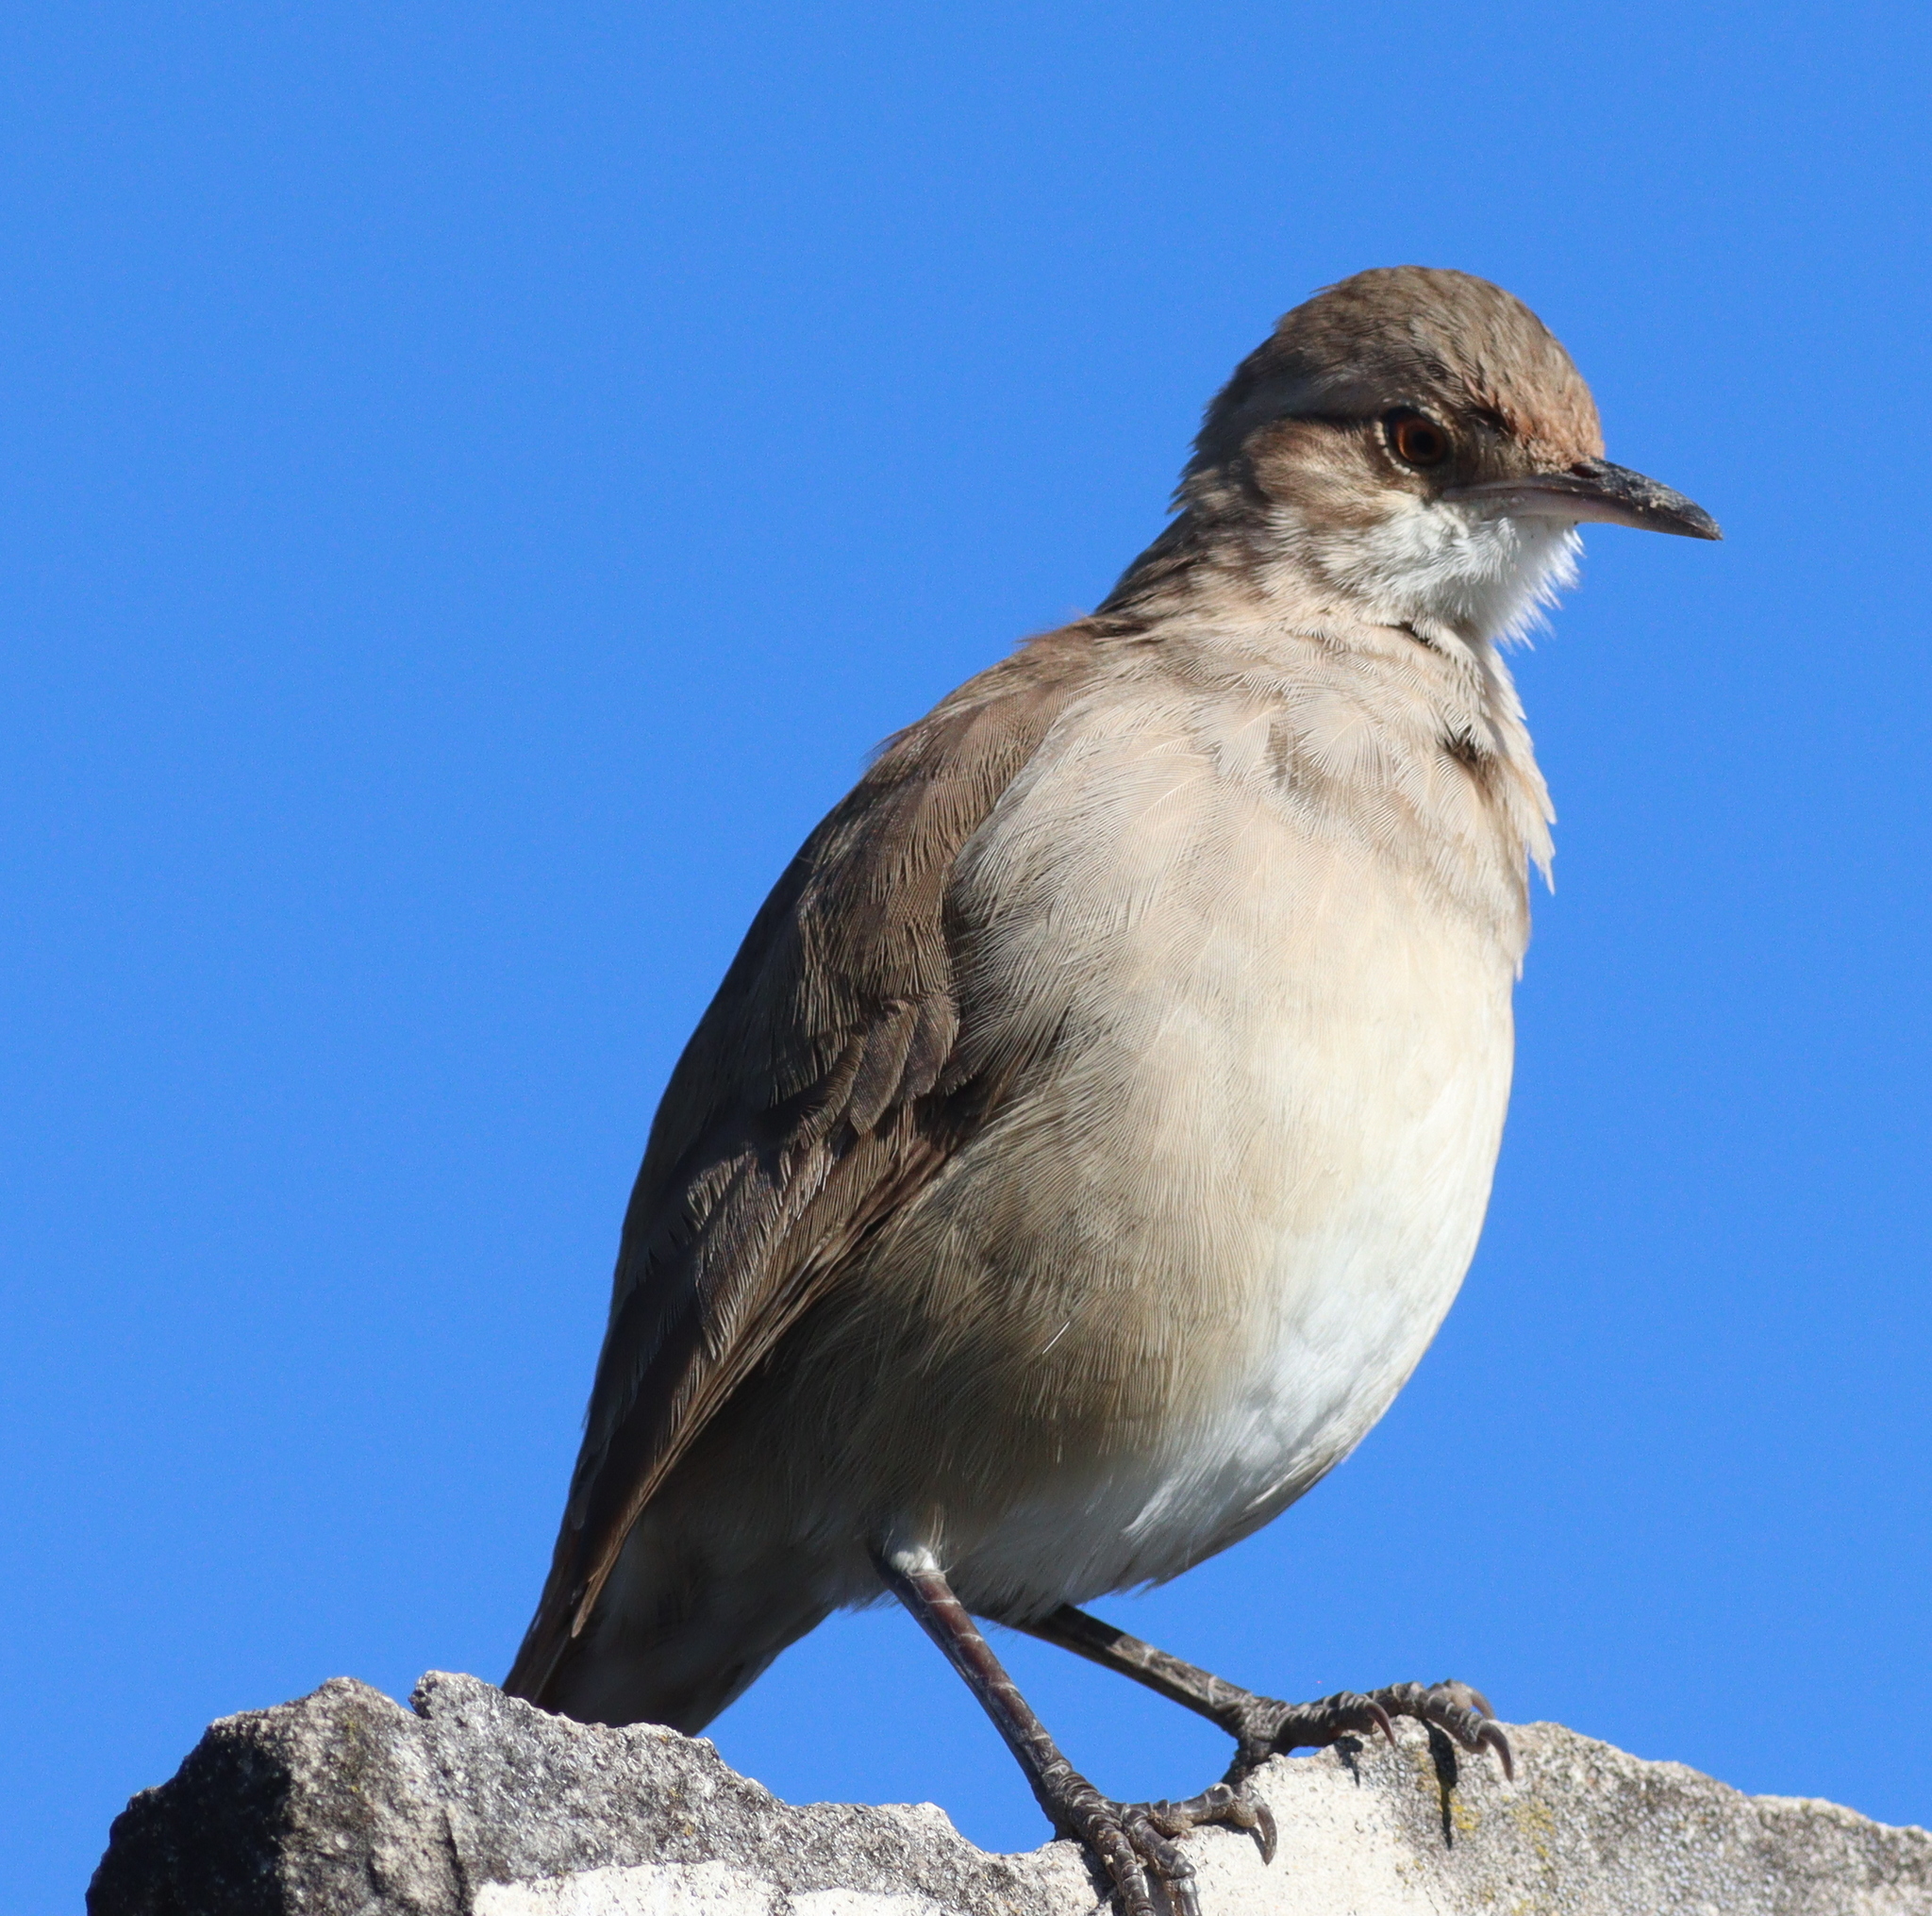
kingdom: Animalia
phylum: Chordata
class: Aves
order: Passeriformes
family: Furnariidae
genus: Furnarius
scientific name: Furnarius rufus
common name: Rufous hornero
